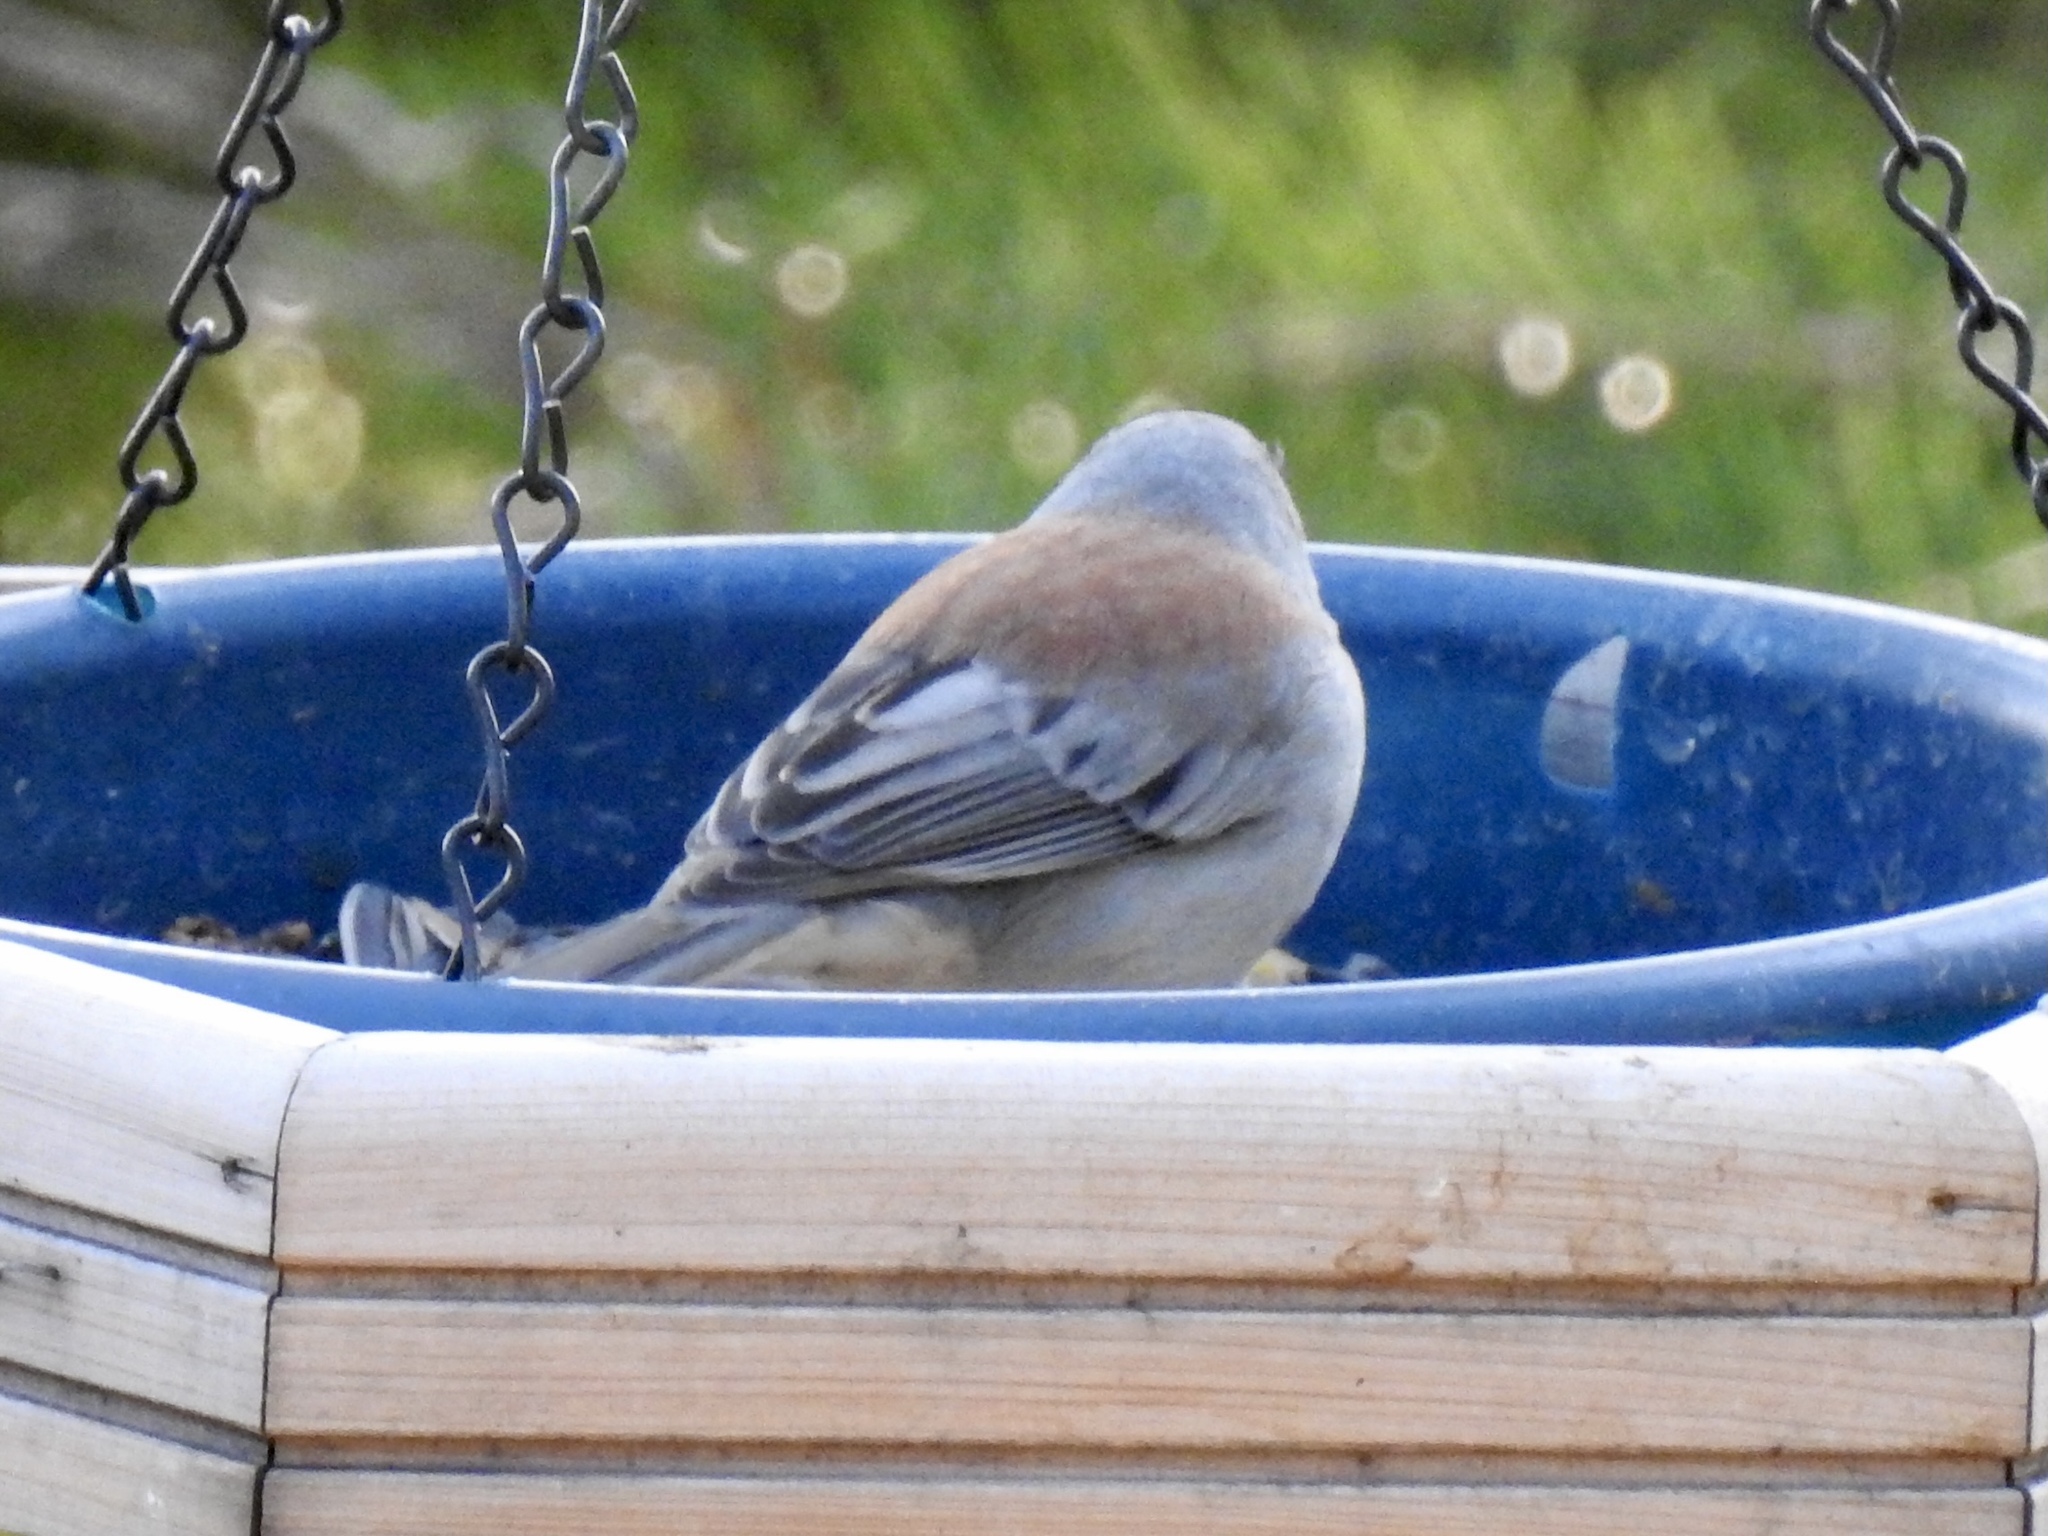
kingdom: Animalia
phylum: Chordata
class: Aves
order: Passeriformes
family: Passerellidae
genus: Junco
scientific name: Junco hyemalis
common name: Dark-eyed junco
